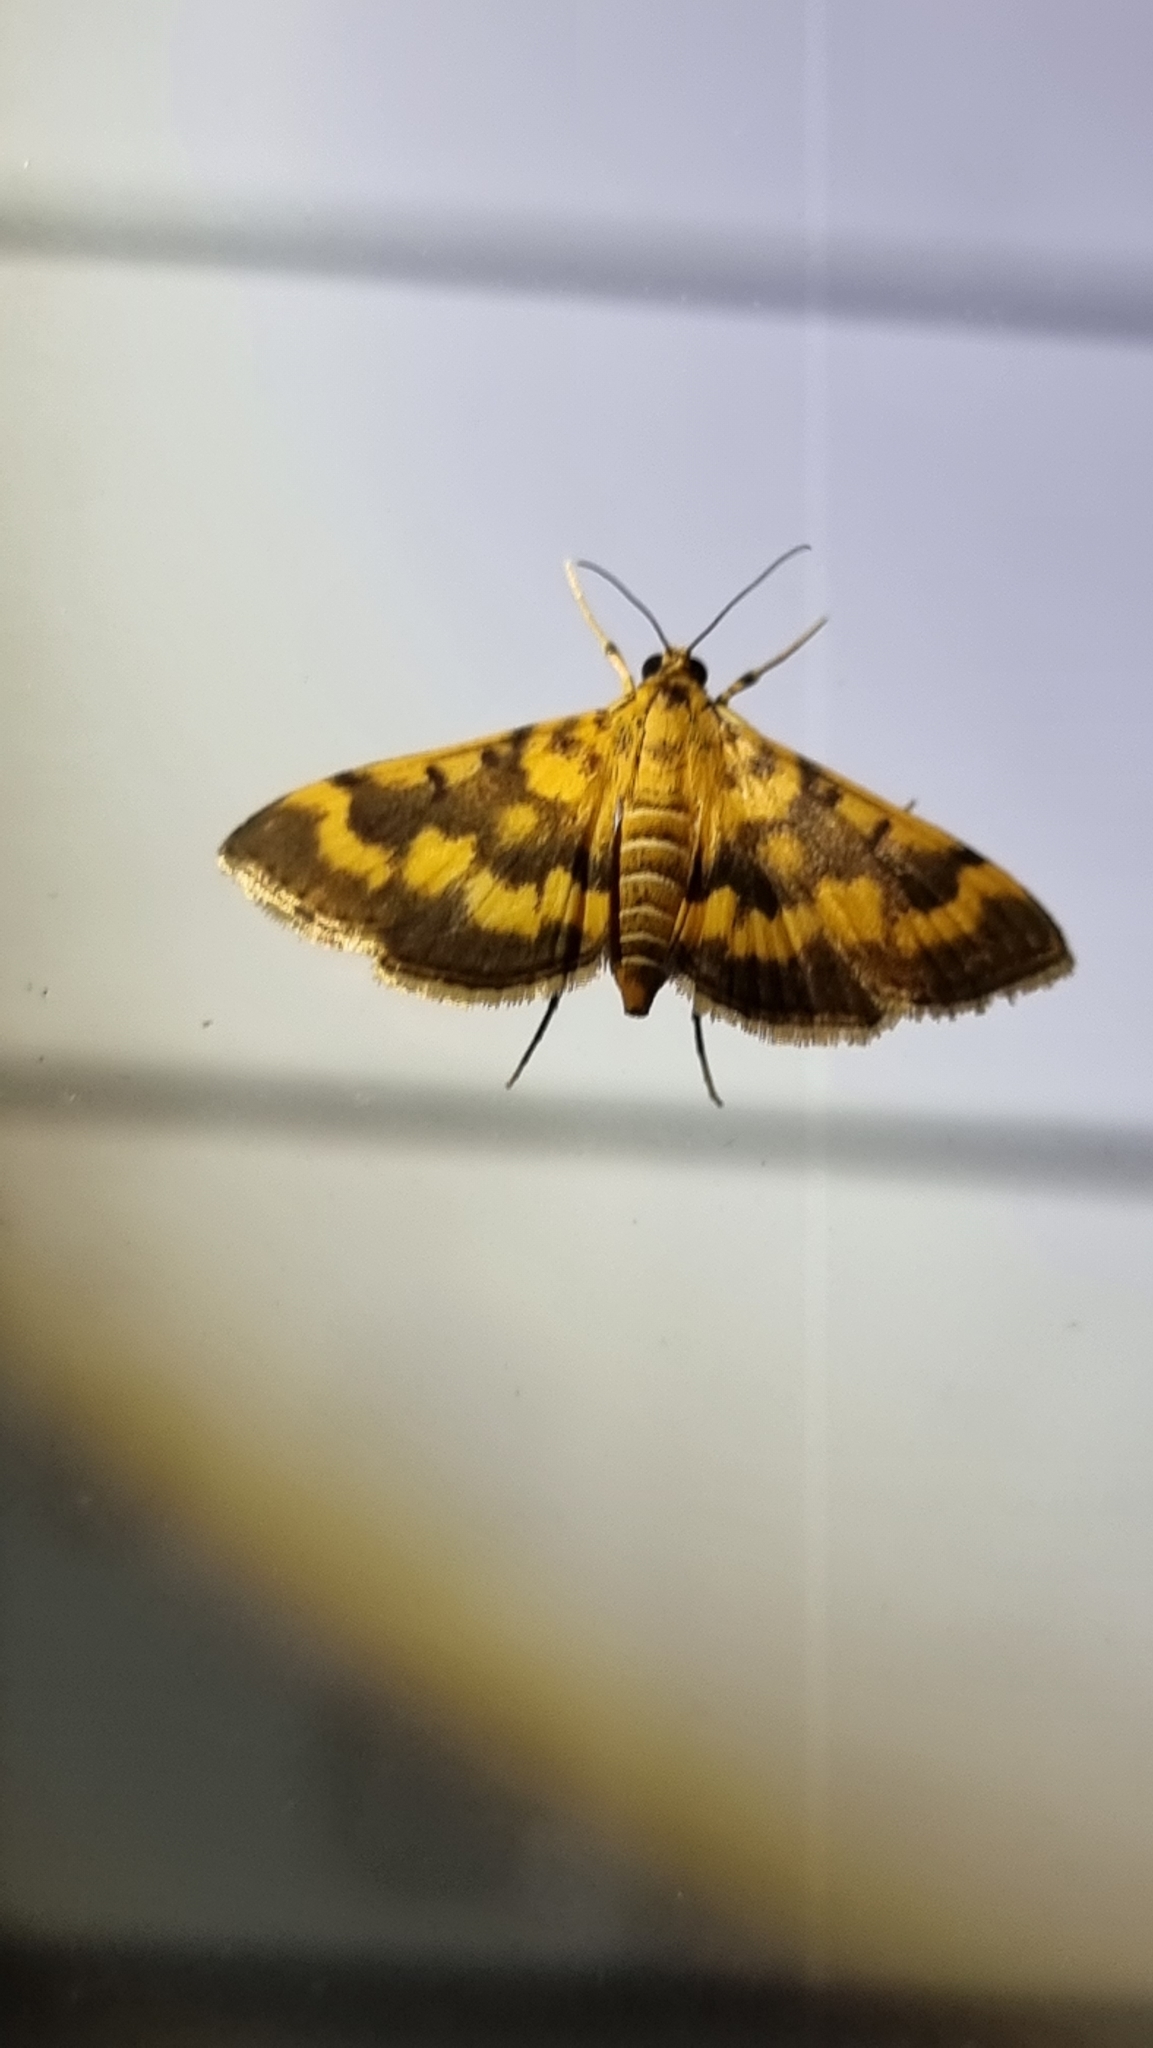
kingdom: Animalia
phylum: Arthropoda
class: Insecta
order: Lepidoptera
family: Crambidae
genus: Omiodes
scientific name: Omiodes diemenalis
